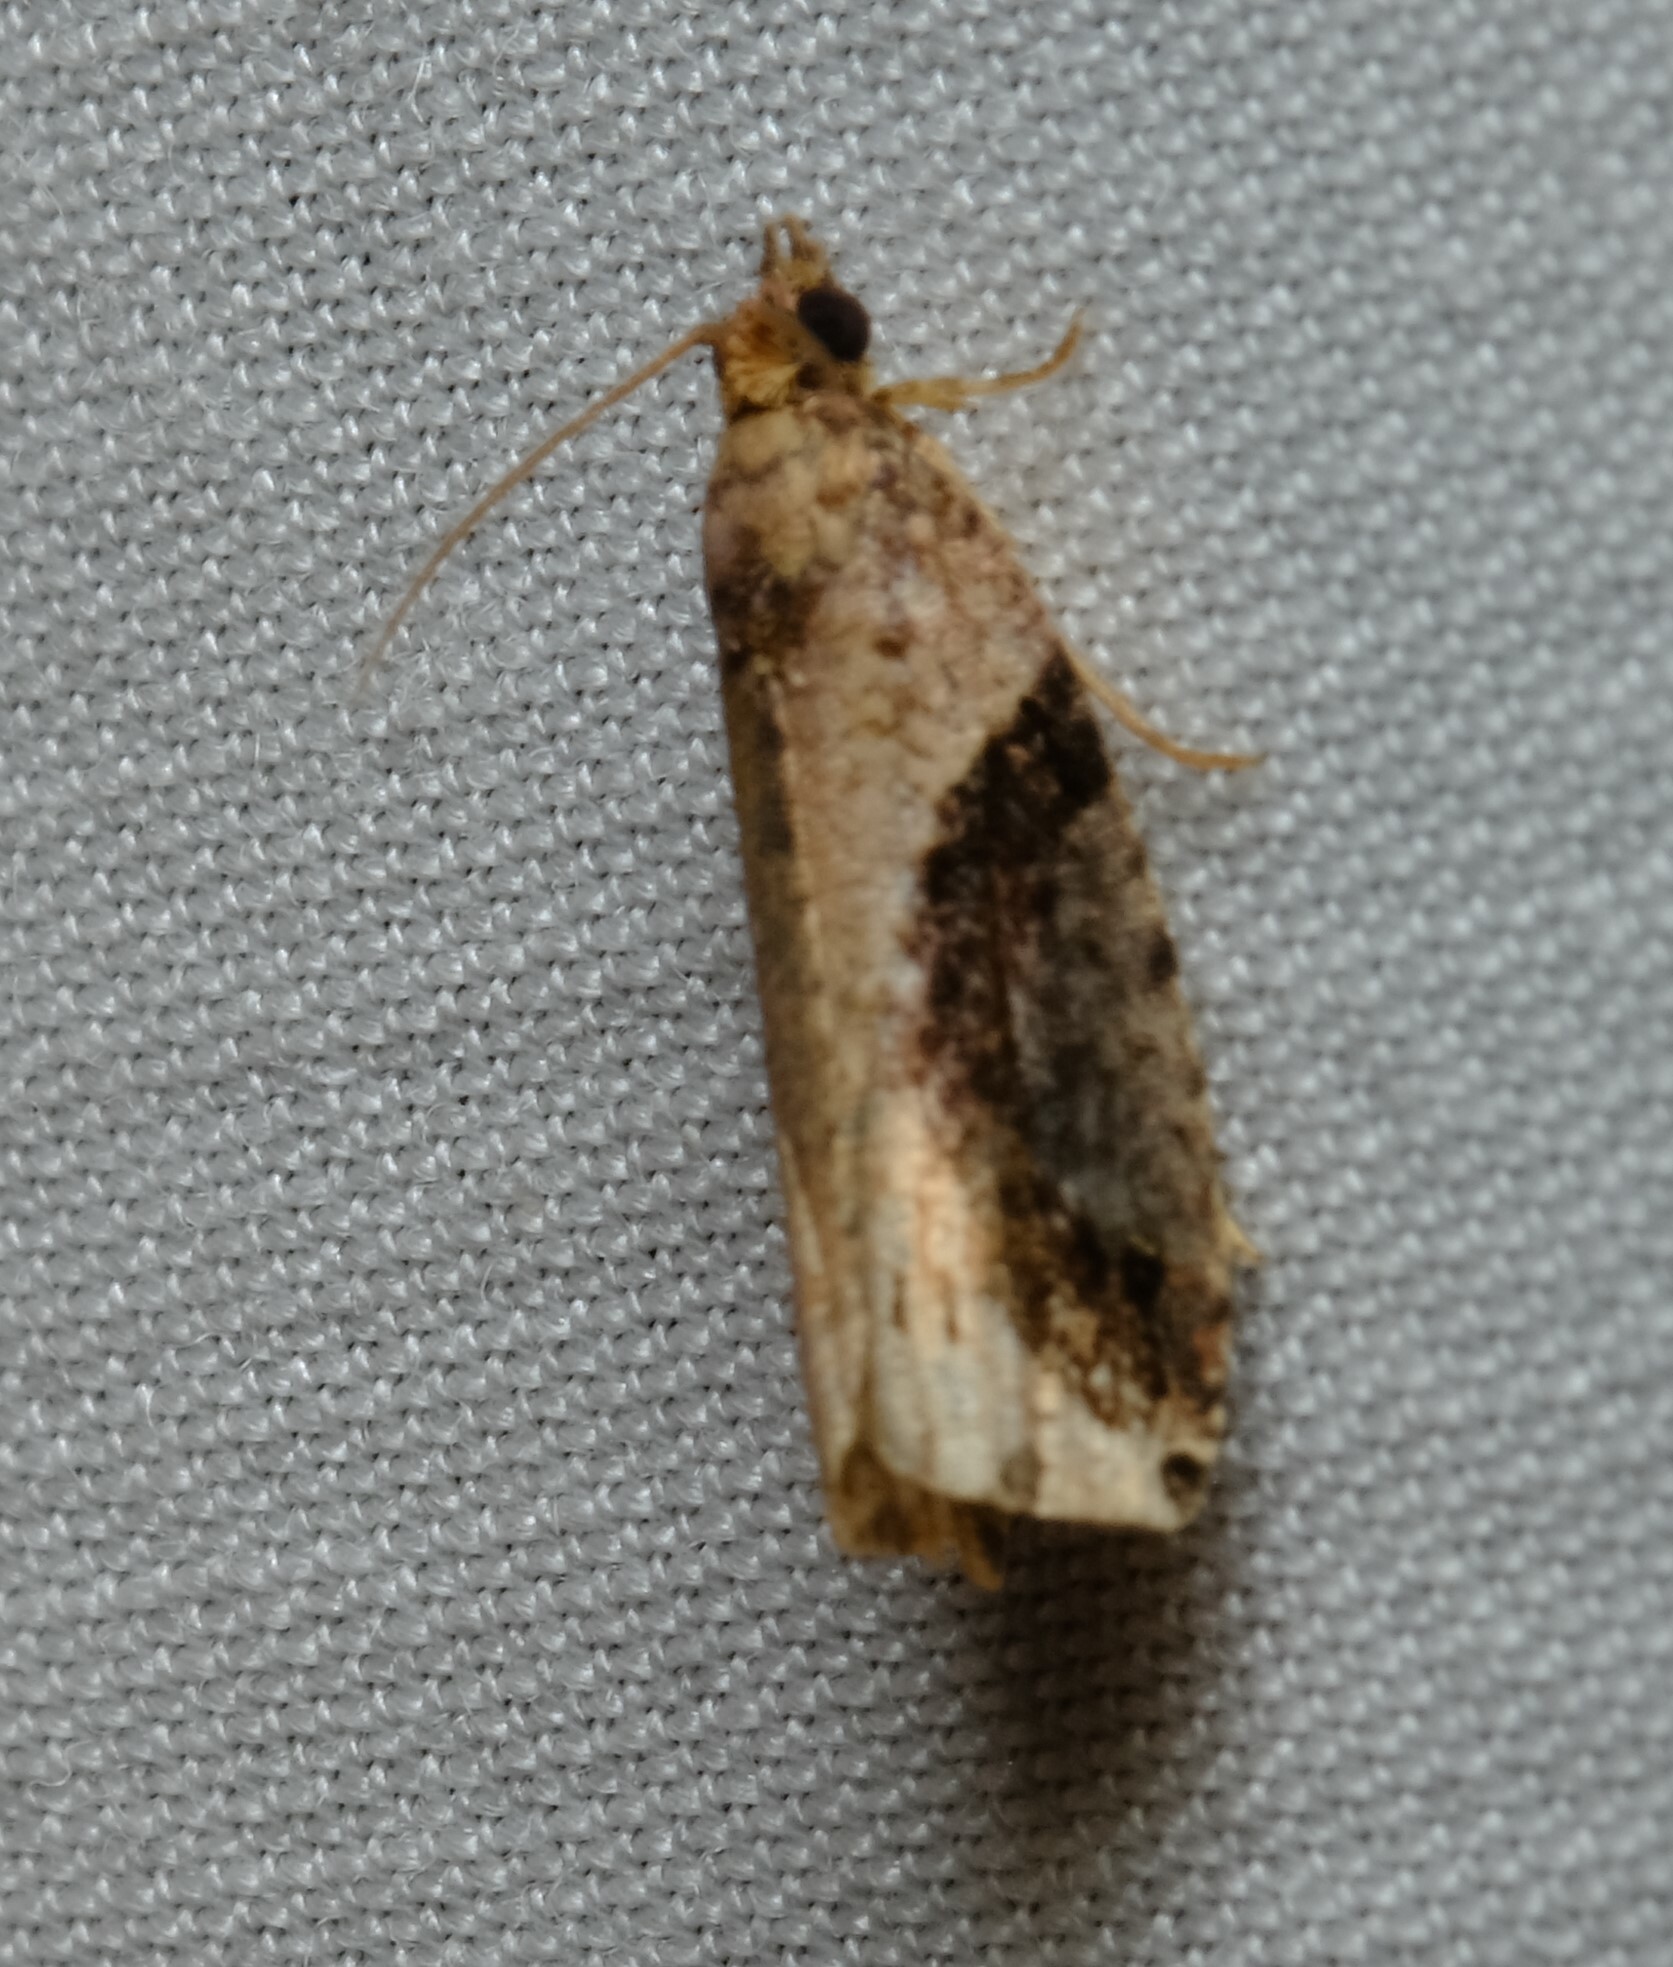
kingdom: Animalia
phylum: Arthropoda
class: Insecta
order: Lepidoptera
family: Tortricidae
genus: Statherotis
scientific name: Statherotis pendulata
